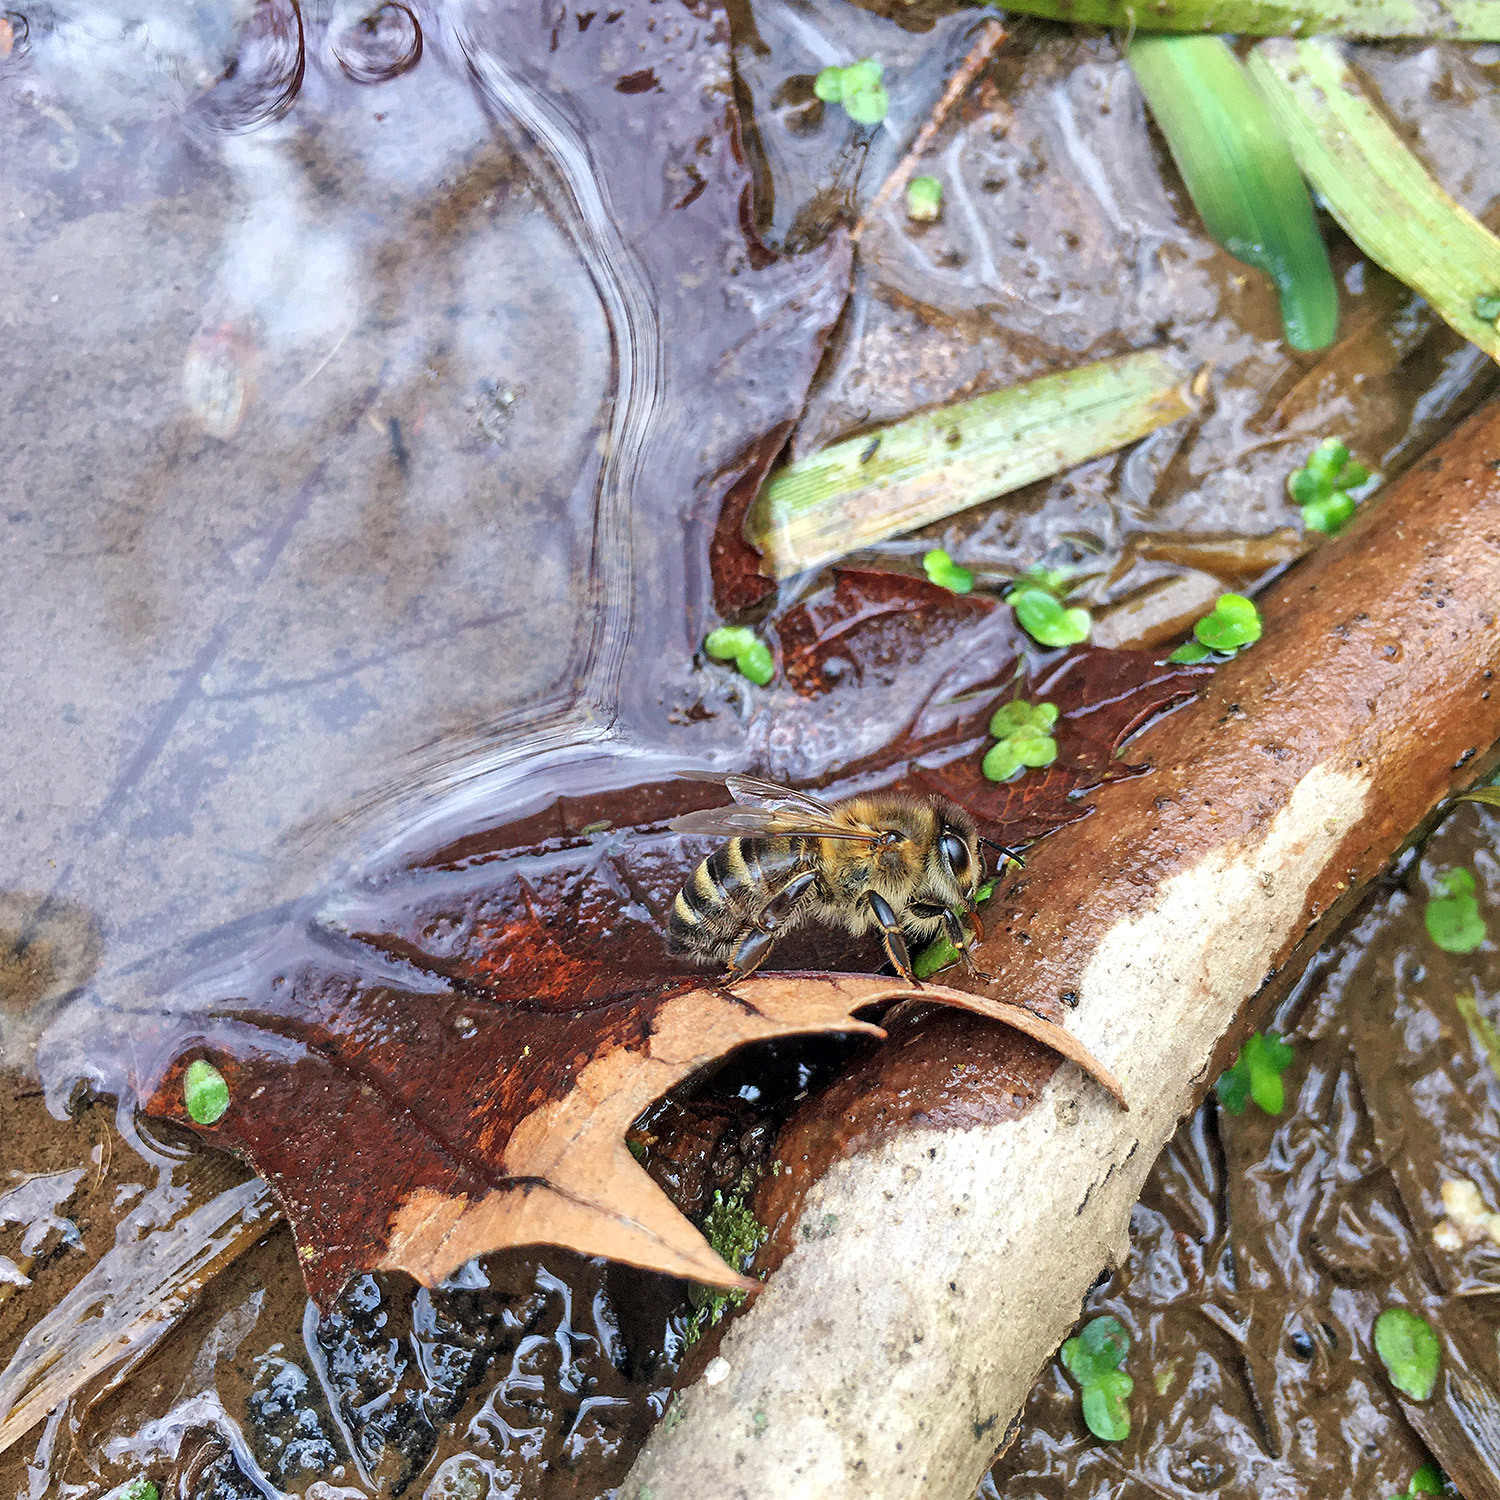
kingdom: Animalia
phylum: Arthropoda
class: Insecta
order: Hymenoptera
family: Apidae
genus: Apis
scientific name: Apis mellifera
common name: Honey bee
